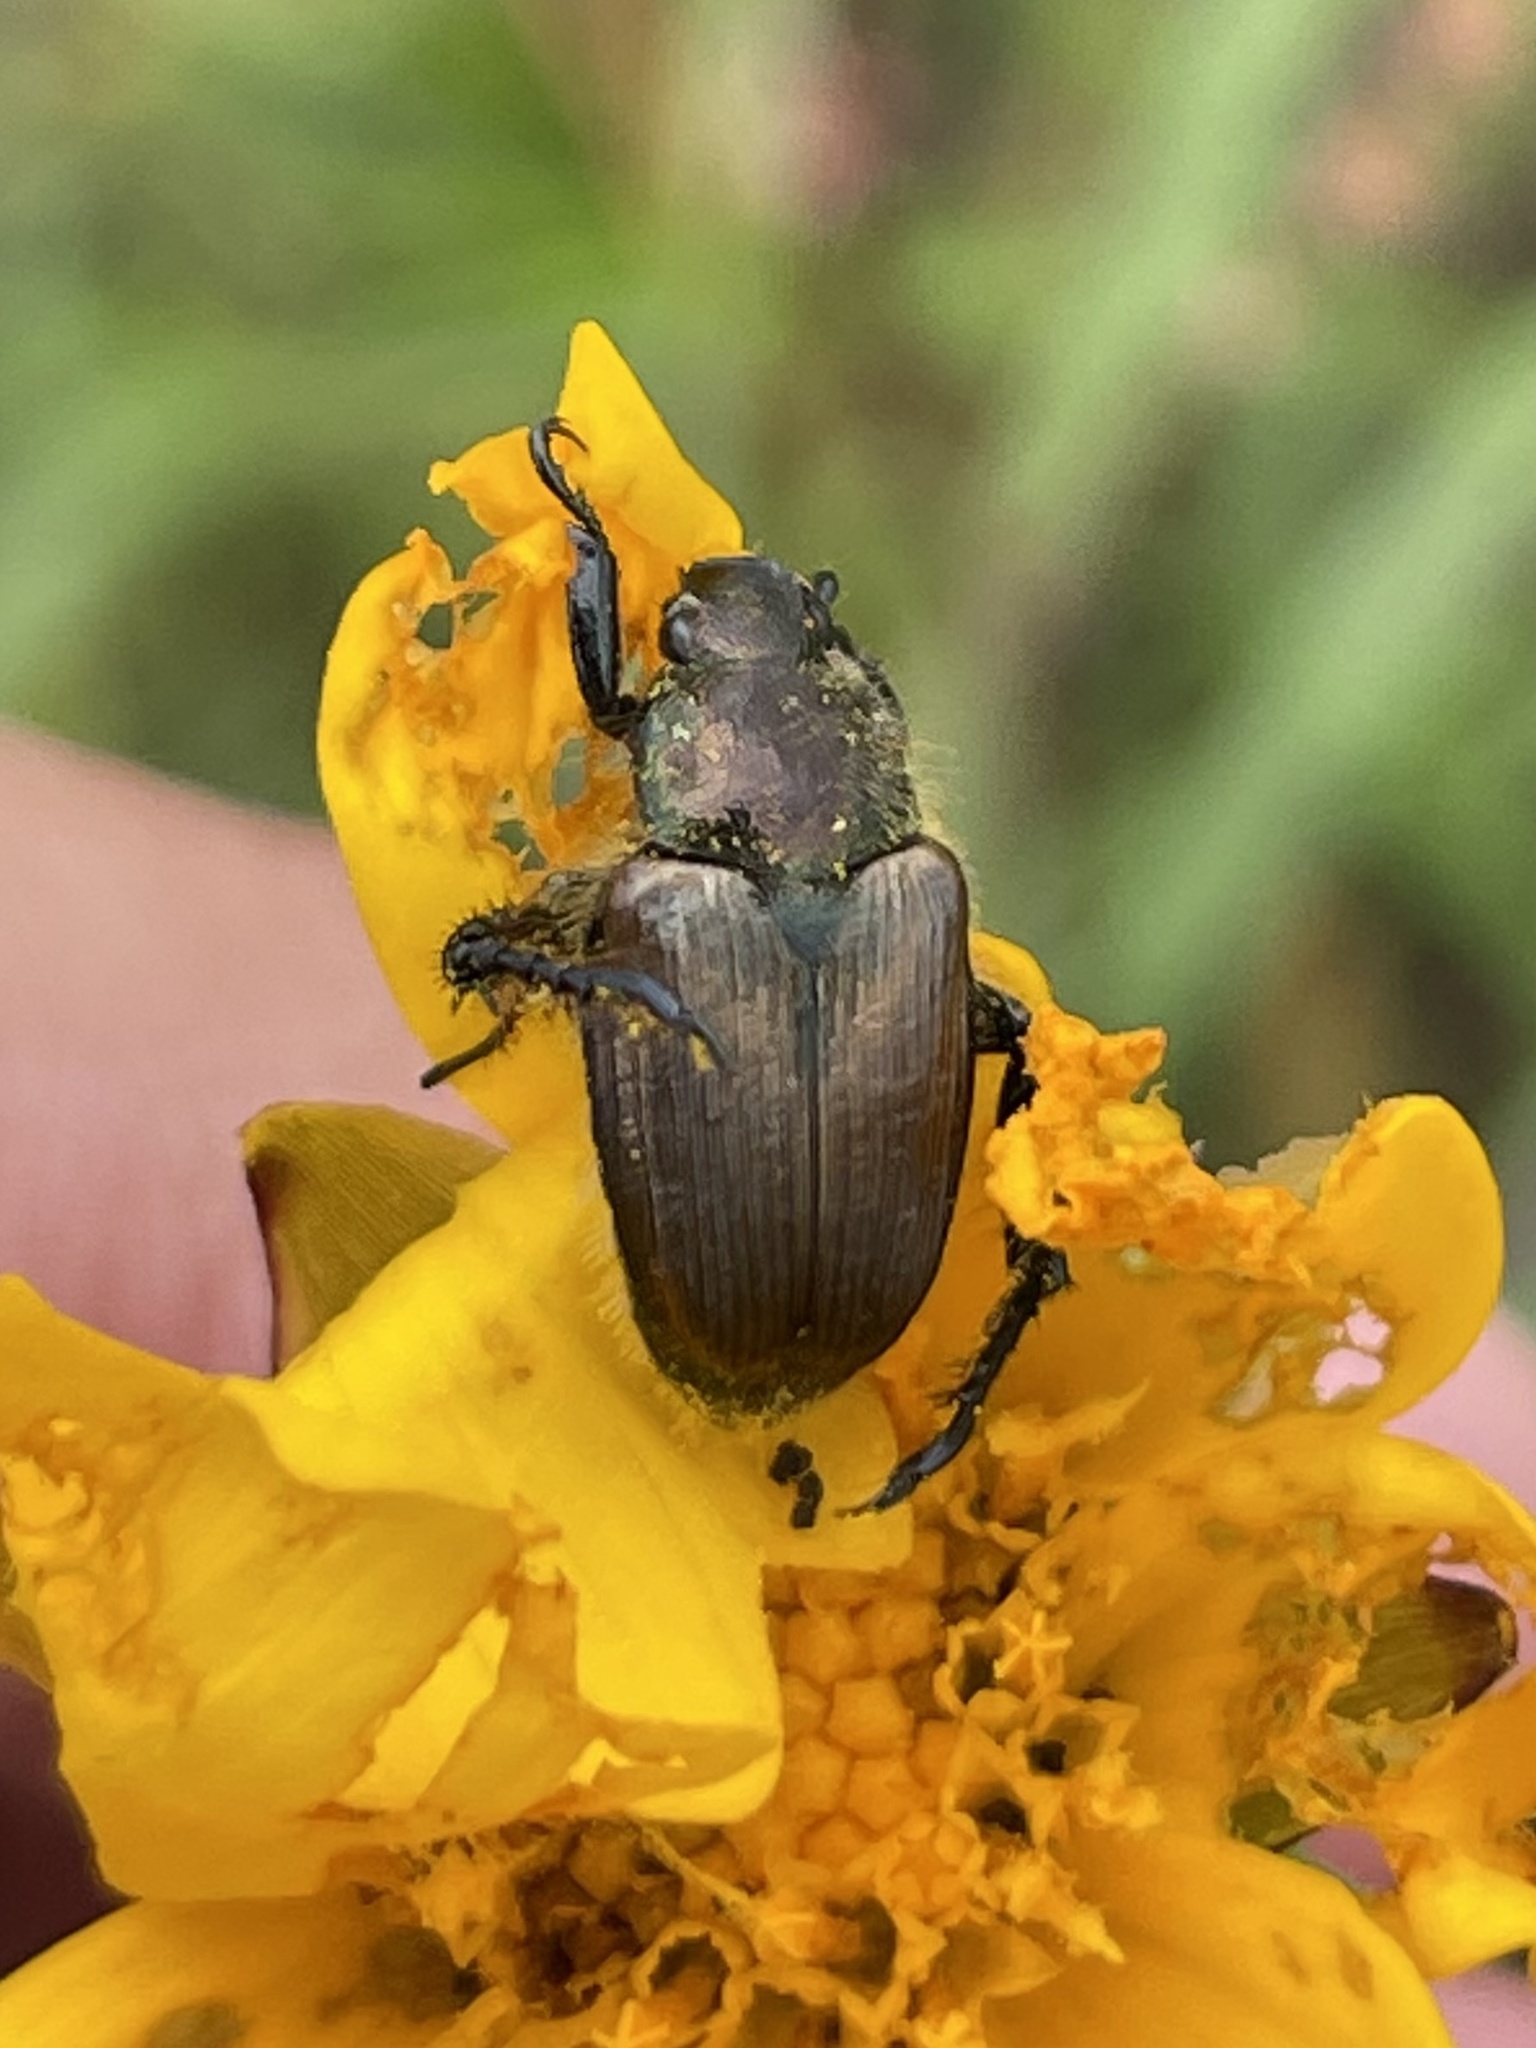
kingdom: Animalia
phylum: Arthropoda
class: Insecta
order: Coleoptera
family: Scarabaeidae
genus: Strigoderma
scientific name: Strigoderma arbicola
